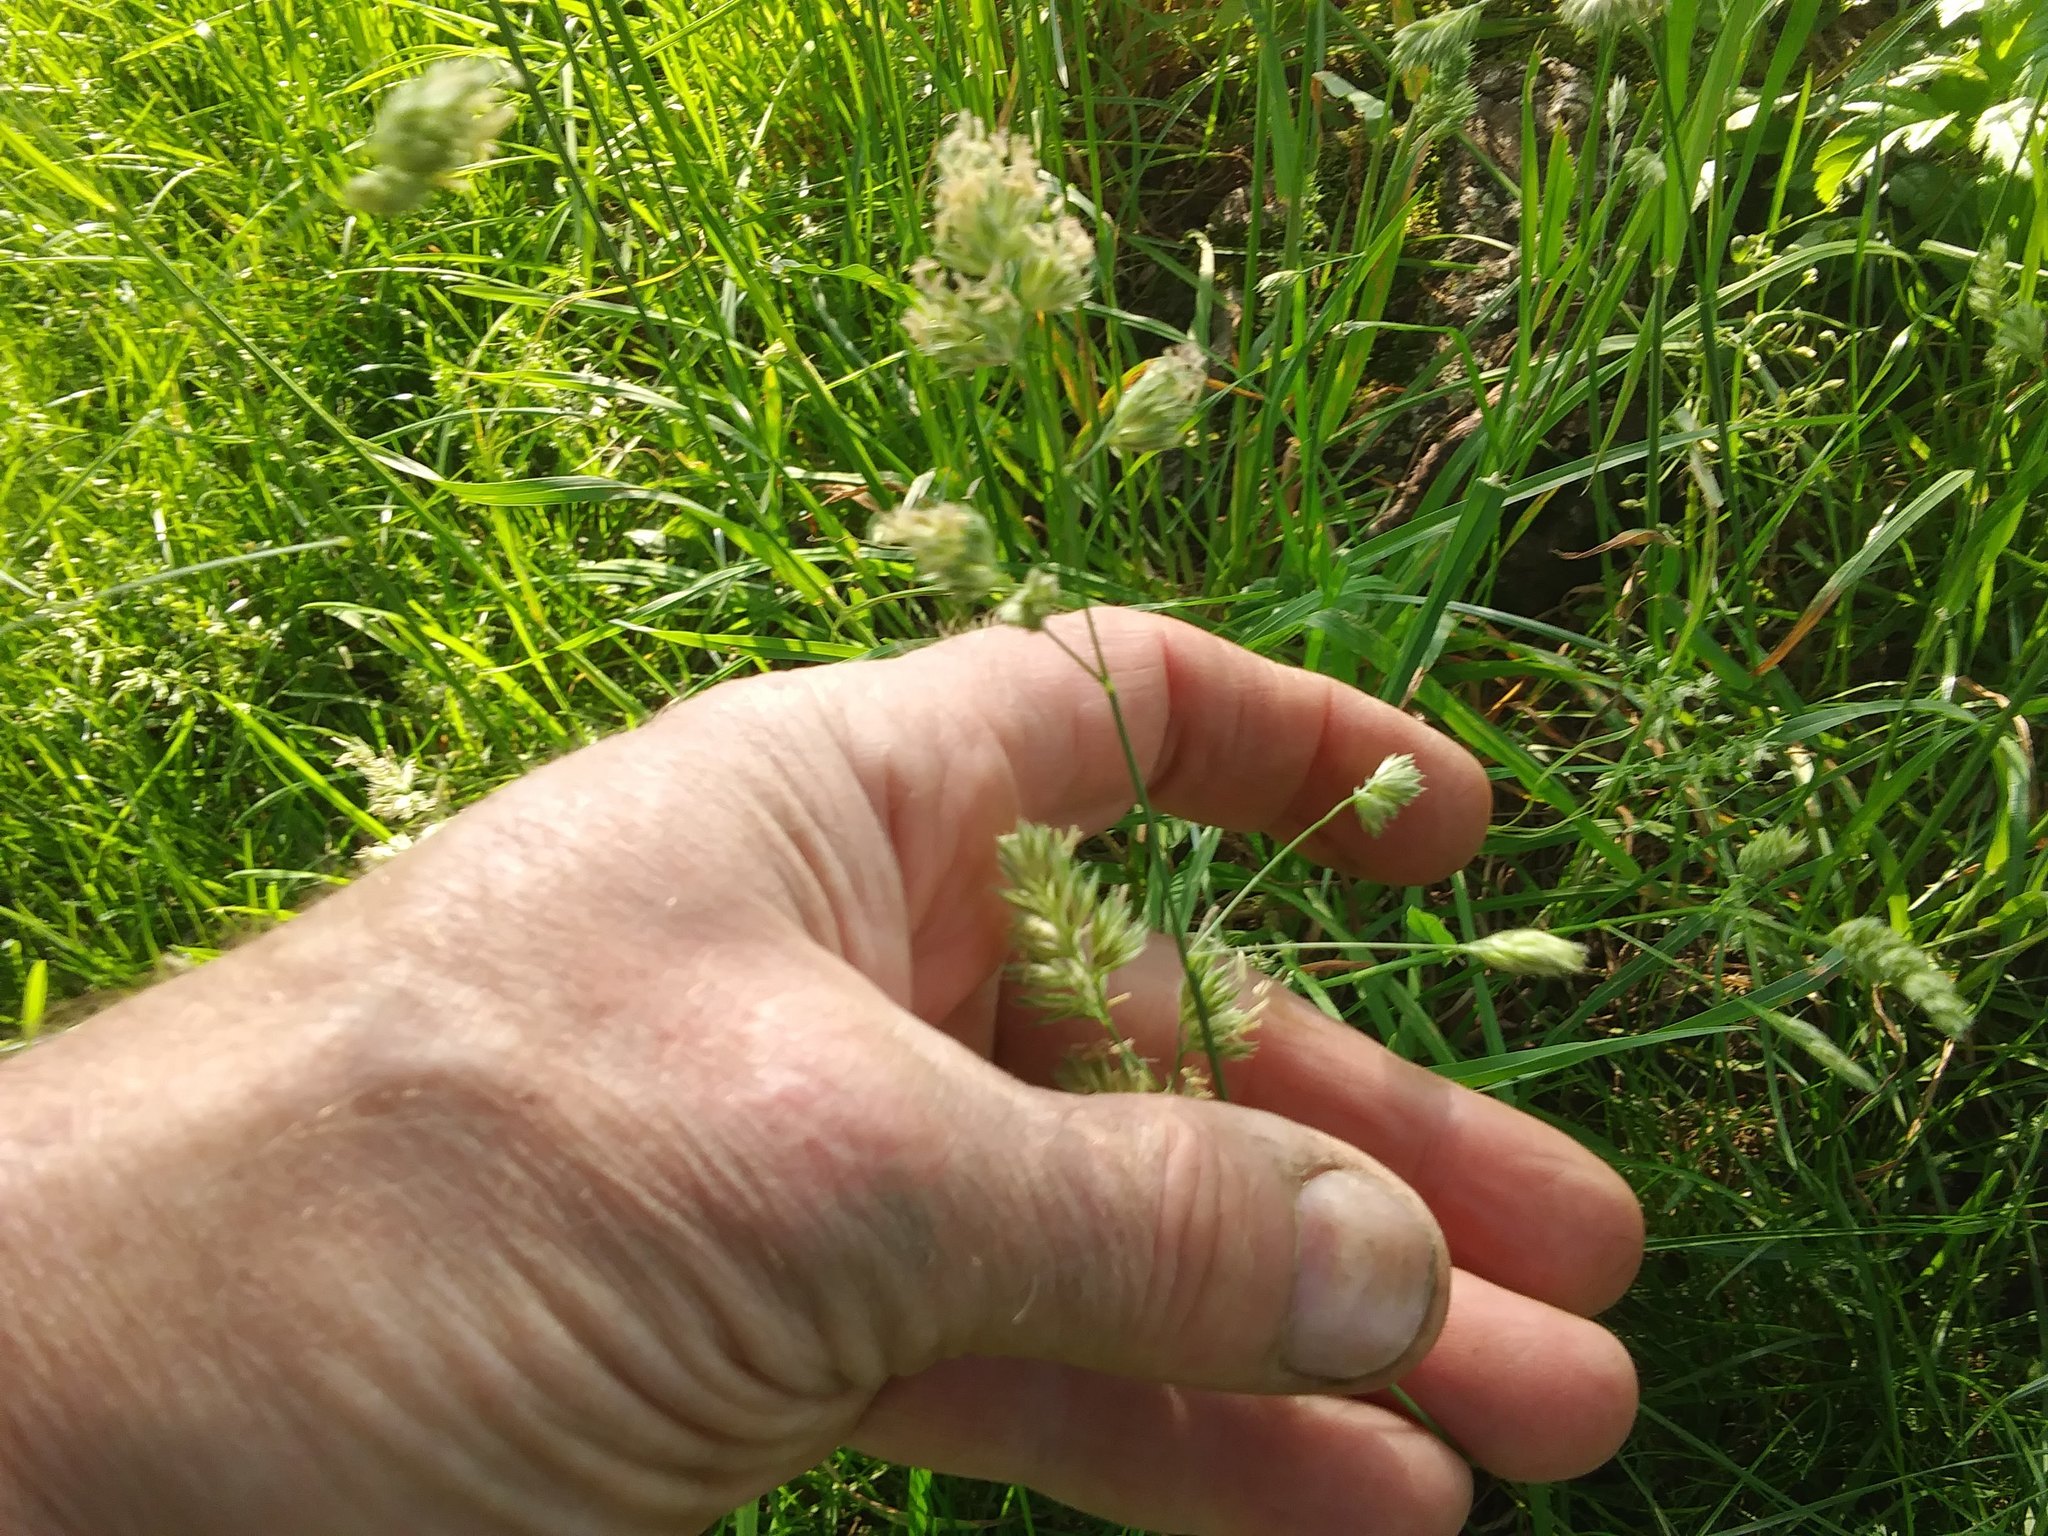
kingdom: Plantae
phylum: Tracheophyta
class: Liliopsida
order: Poales
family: Poaceae
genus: Dactylis
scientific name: Dactylis glomerata
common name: Orchardgrass
